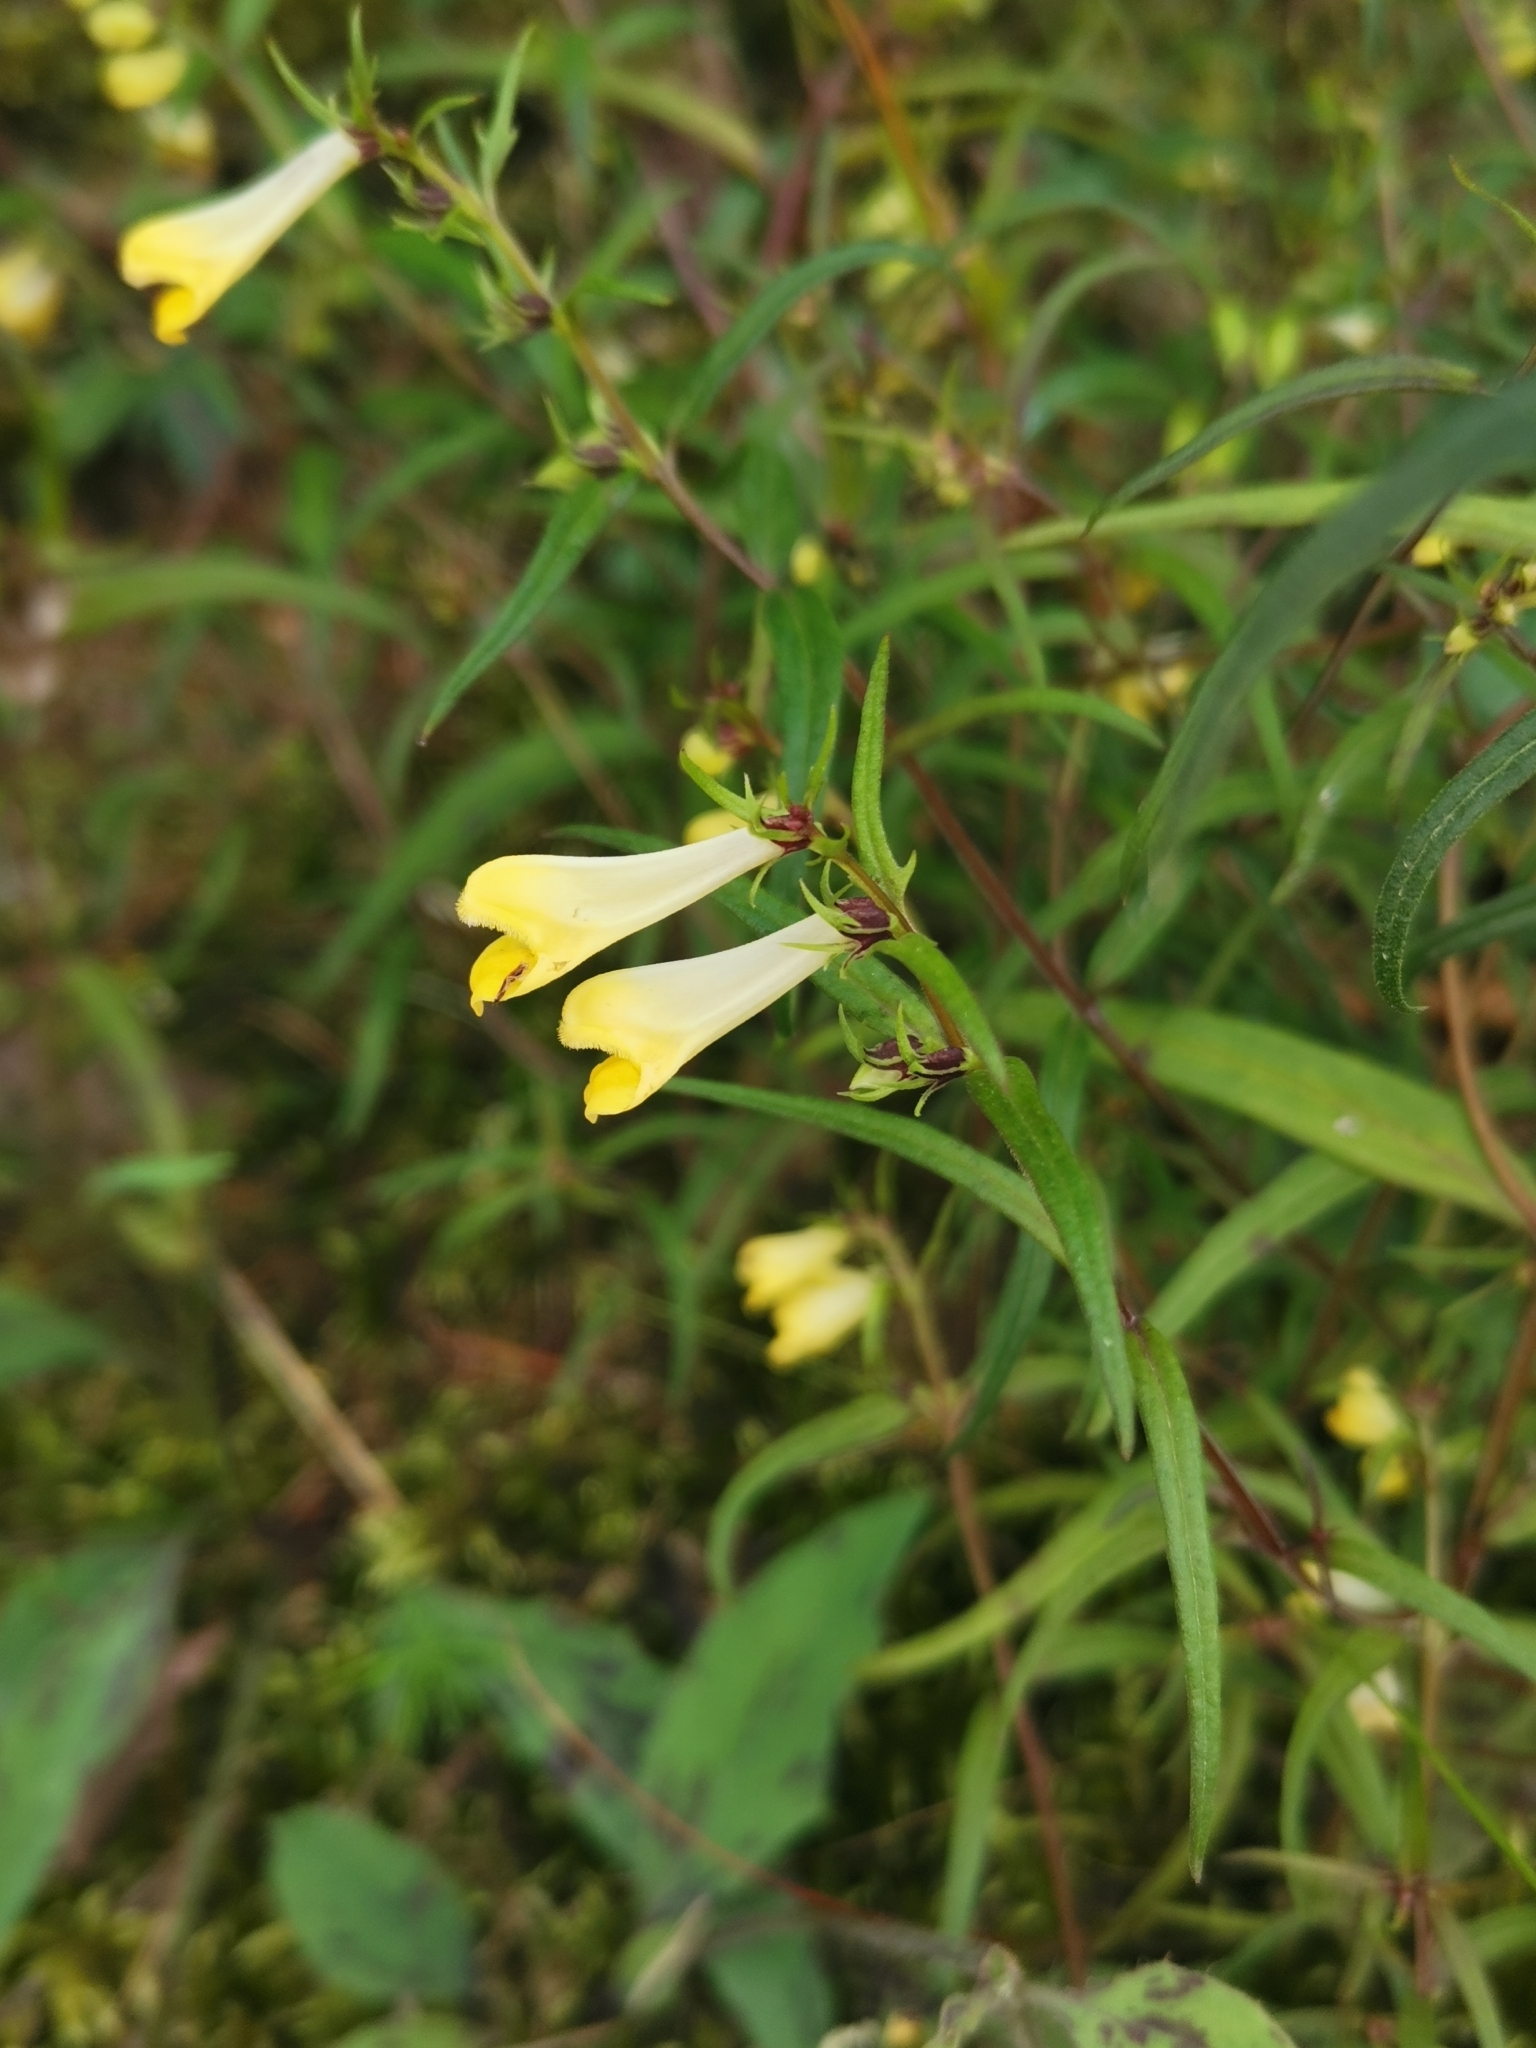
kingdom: Plantae
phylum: Tracheophyta
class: Magnoliopsida
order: Lamiales
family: Orobanchaceae
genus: Melampyrum
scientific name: Melampyrum pratense
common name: Common cow-wheat
